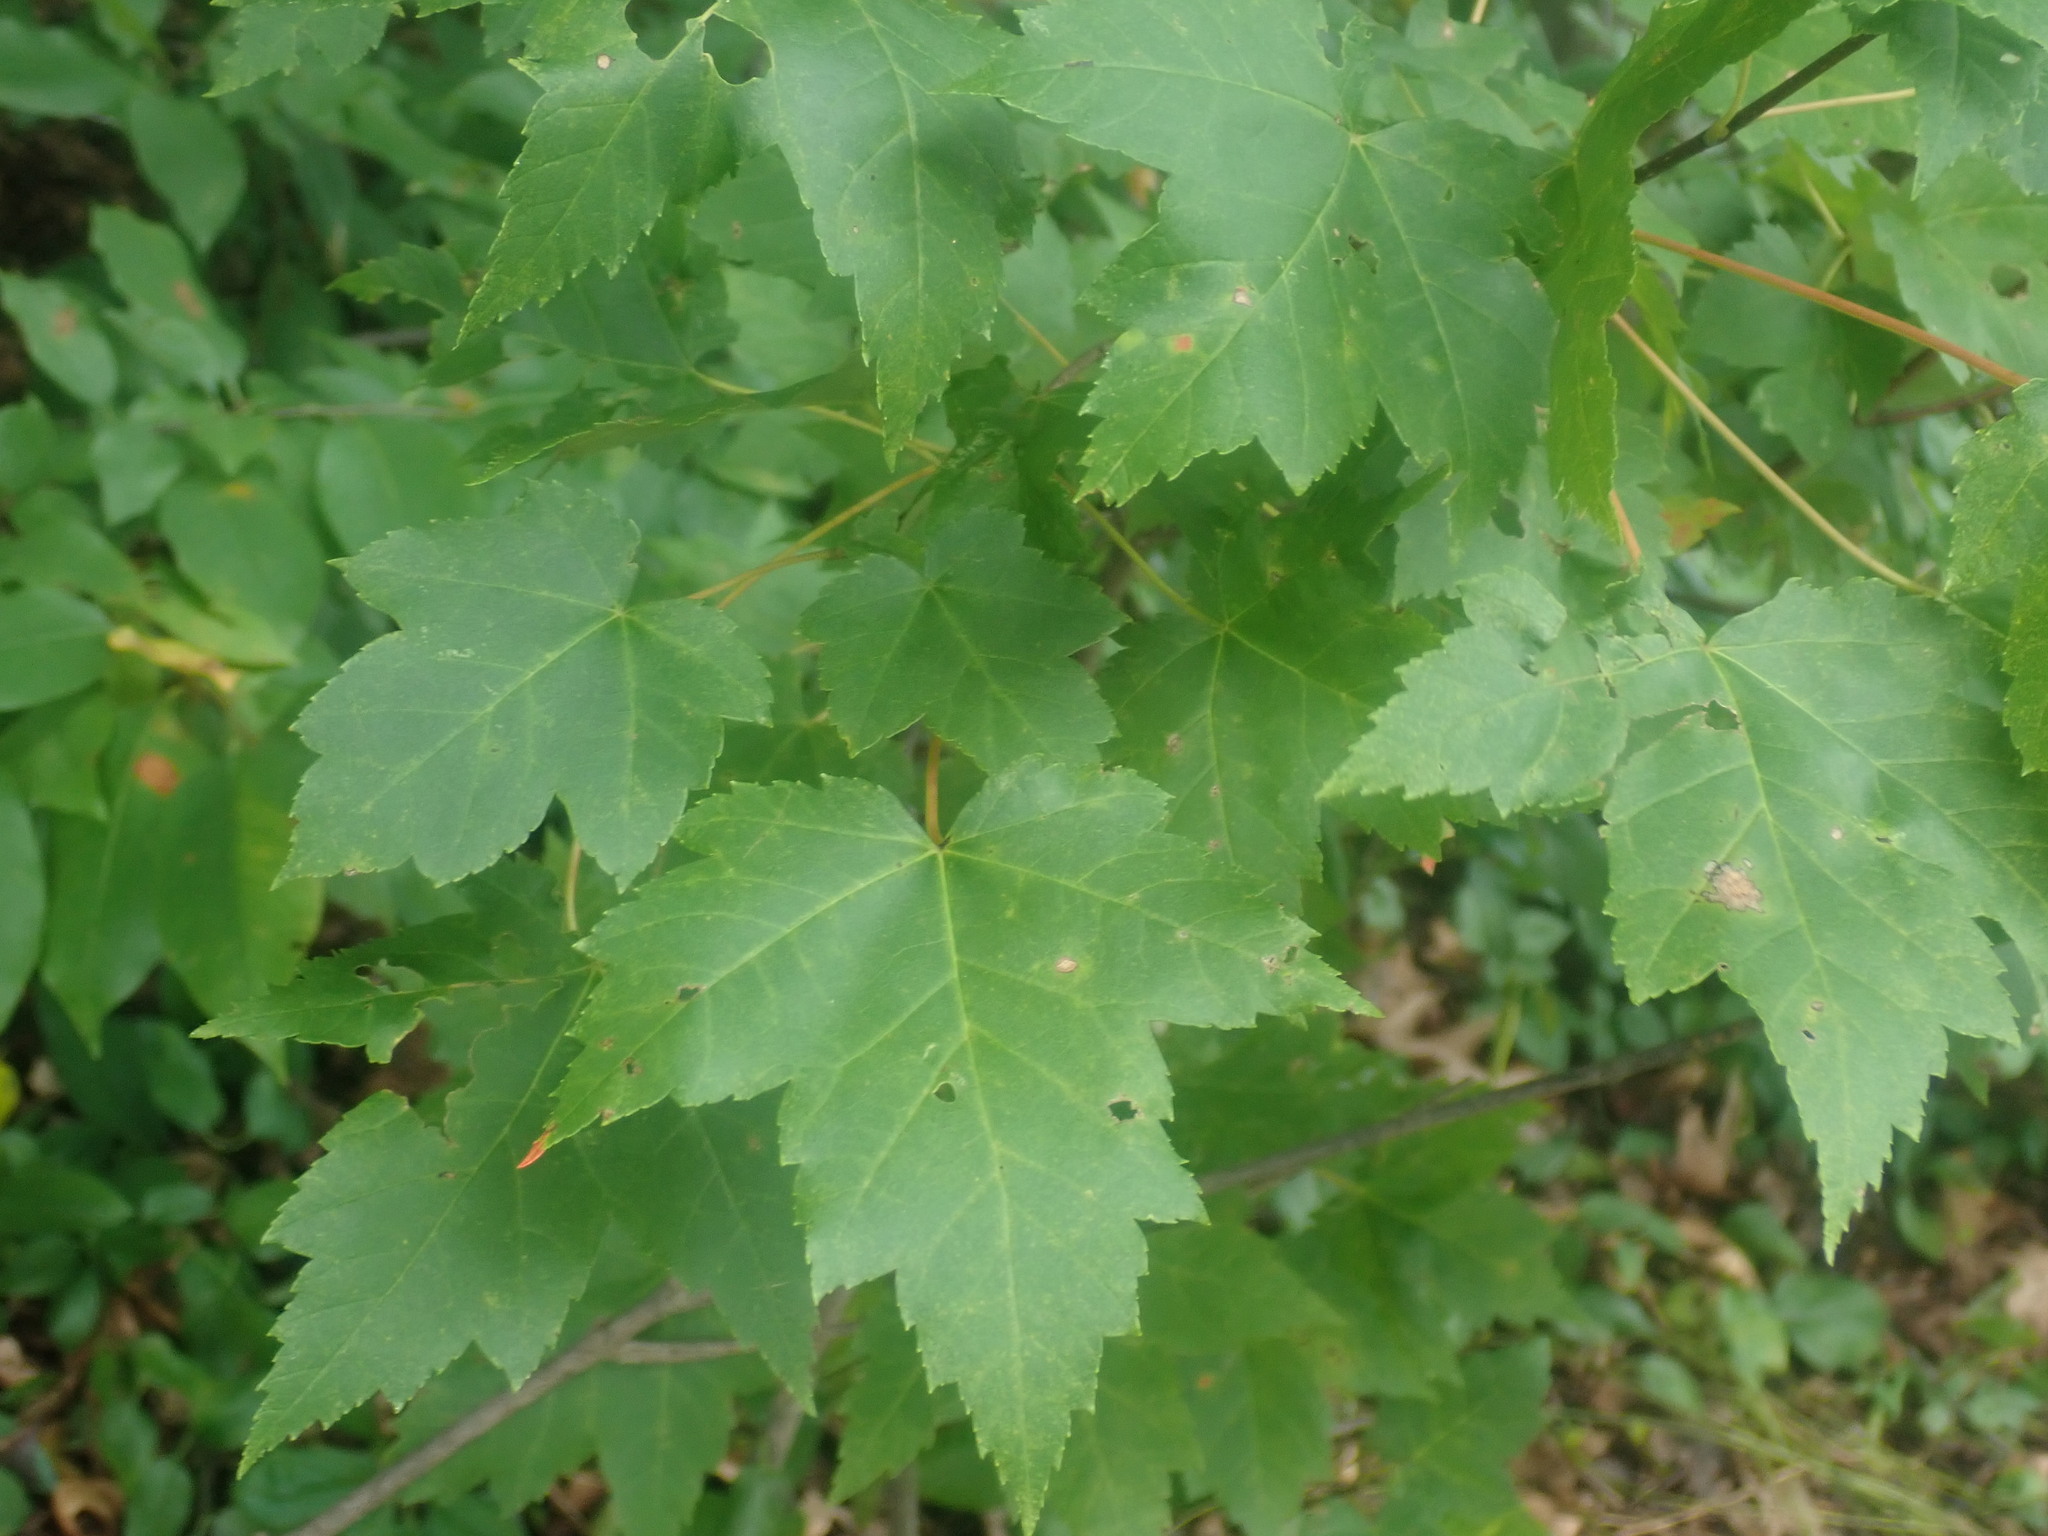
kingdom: Plantae
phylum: Tracheophyta
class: Magnoliopsida
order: Sapindales
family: Sapindaceae
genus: Acer
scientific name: Acer rubrum
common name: Red maple
